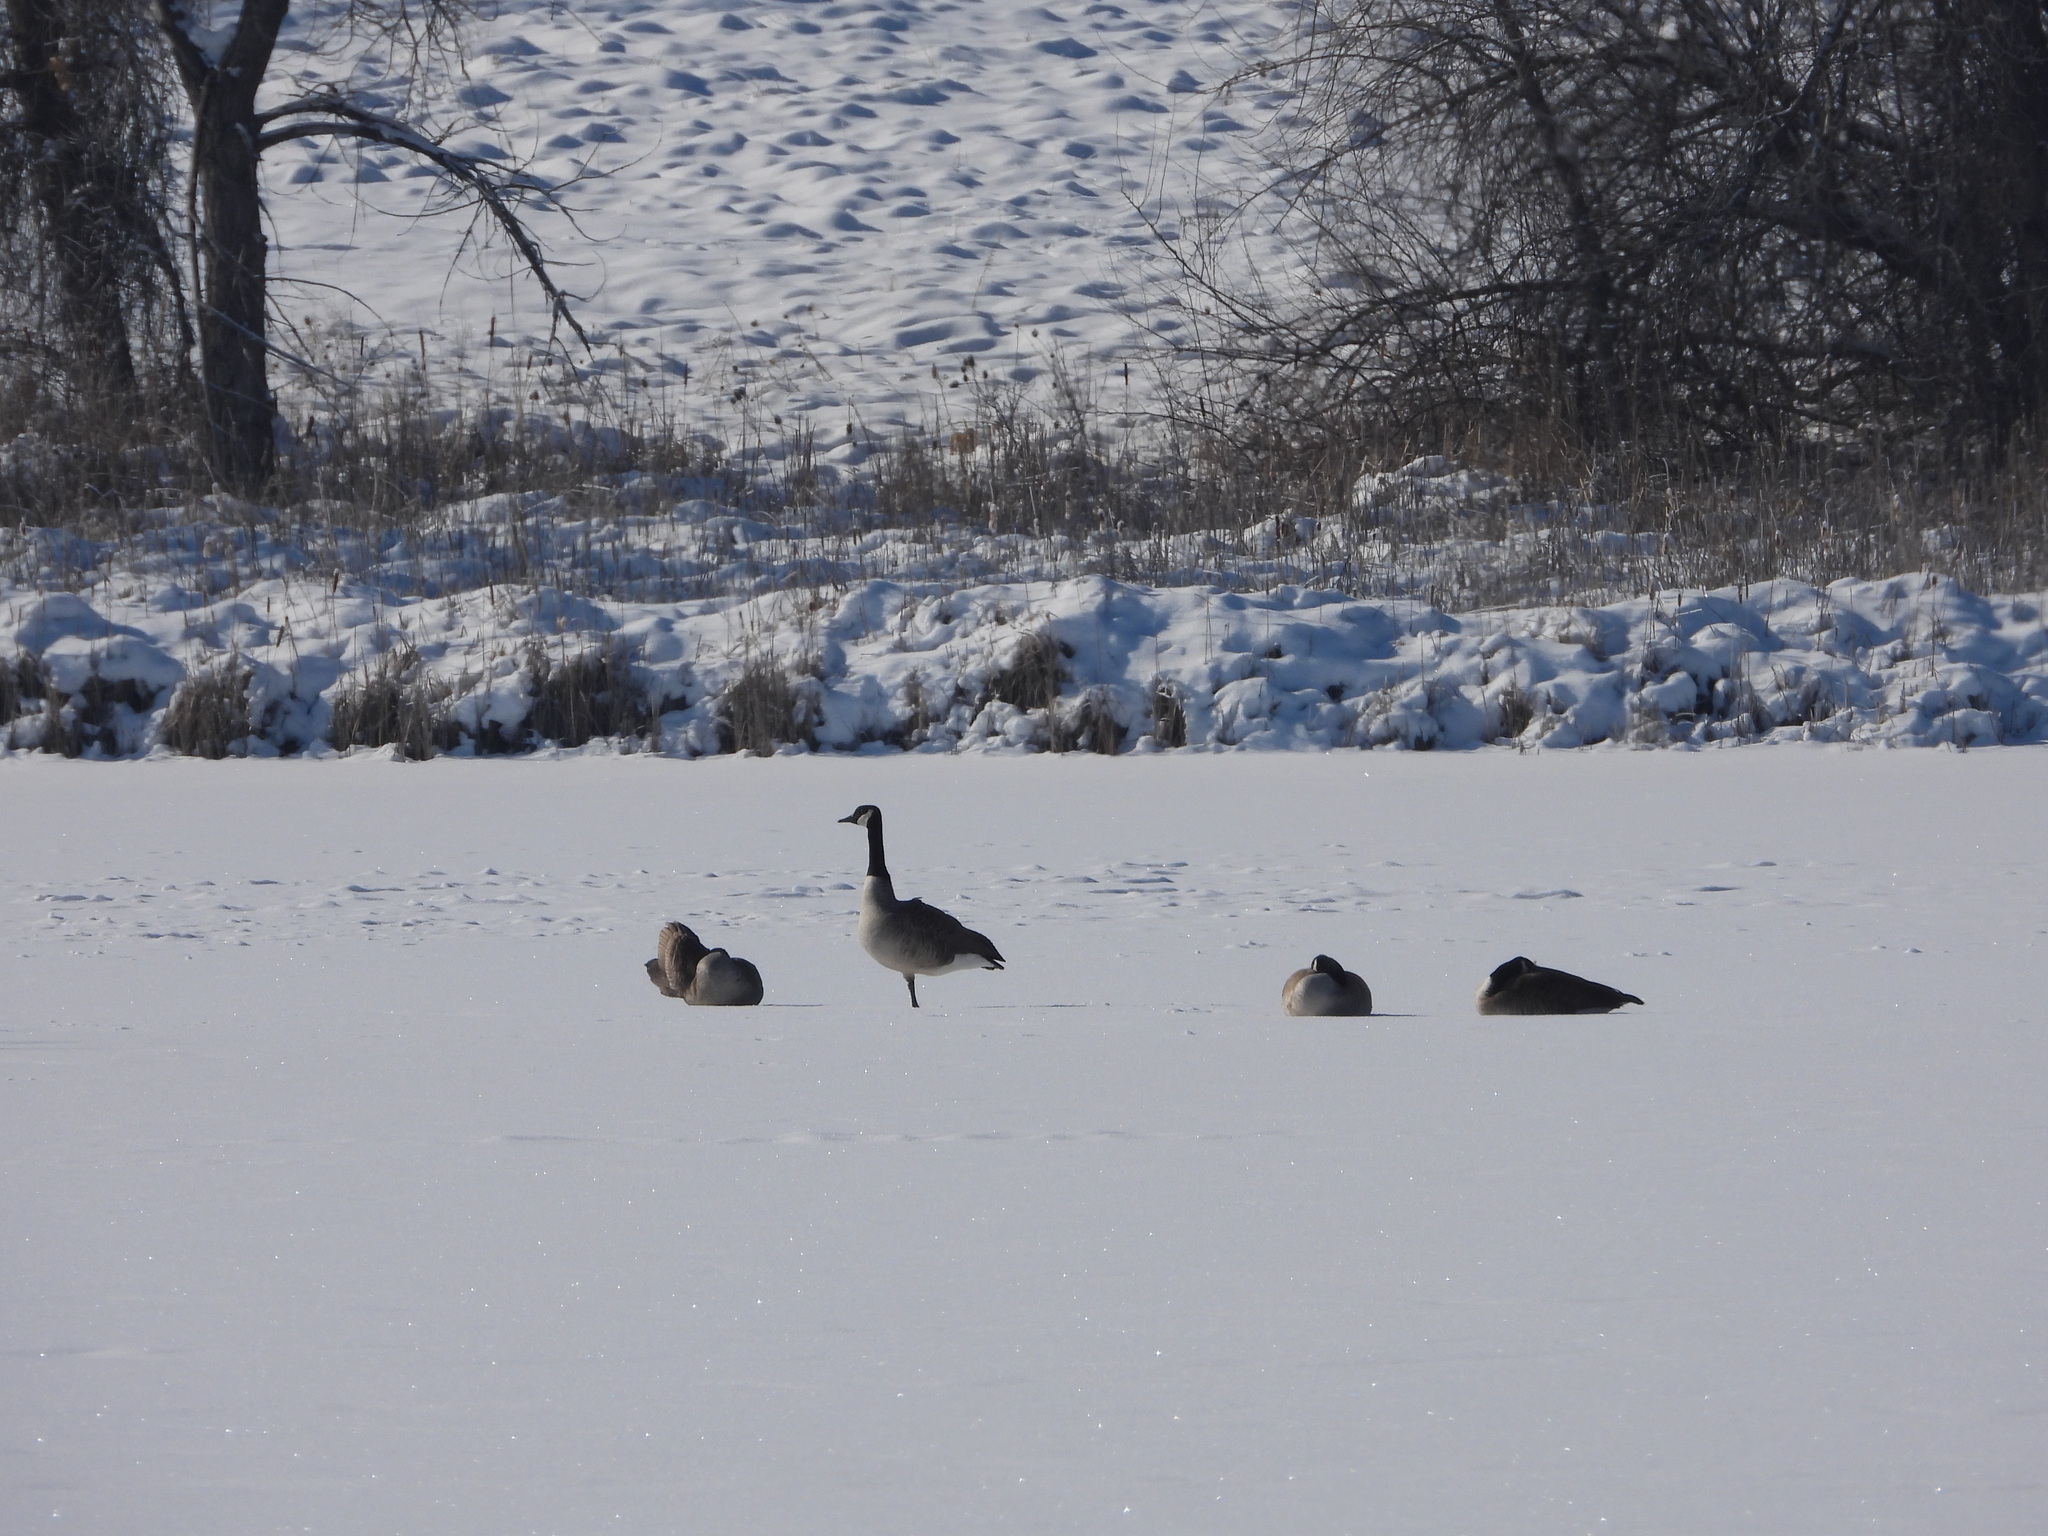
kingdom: Animalia
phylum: Chordata
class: Aves
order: Anseriformes
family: Anatidae
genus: Branta
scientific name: Branta canadensis
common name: Canada goose
